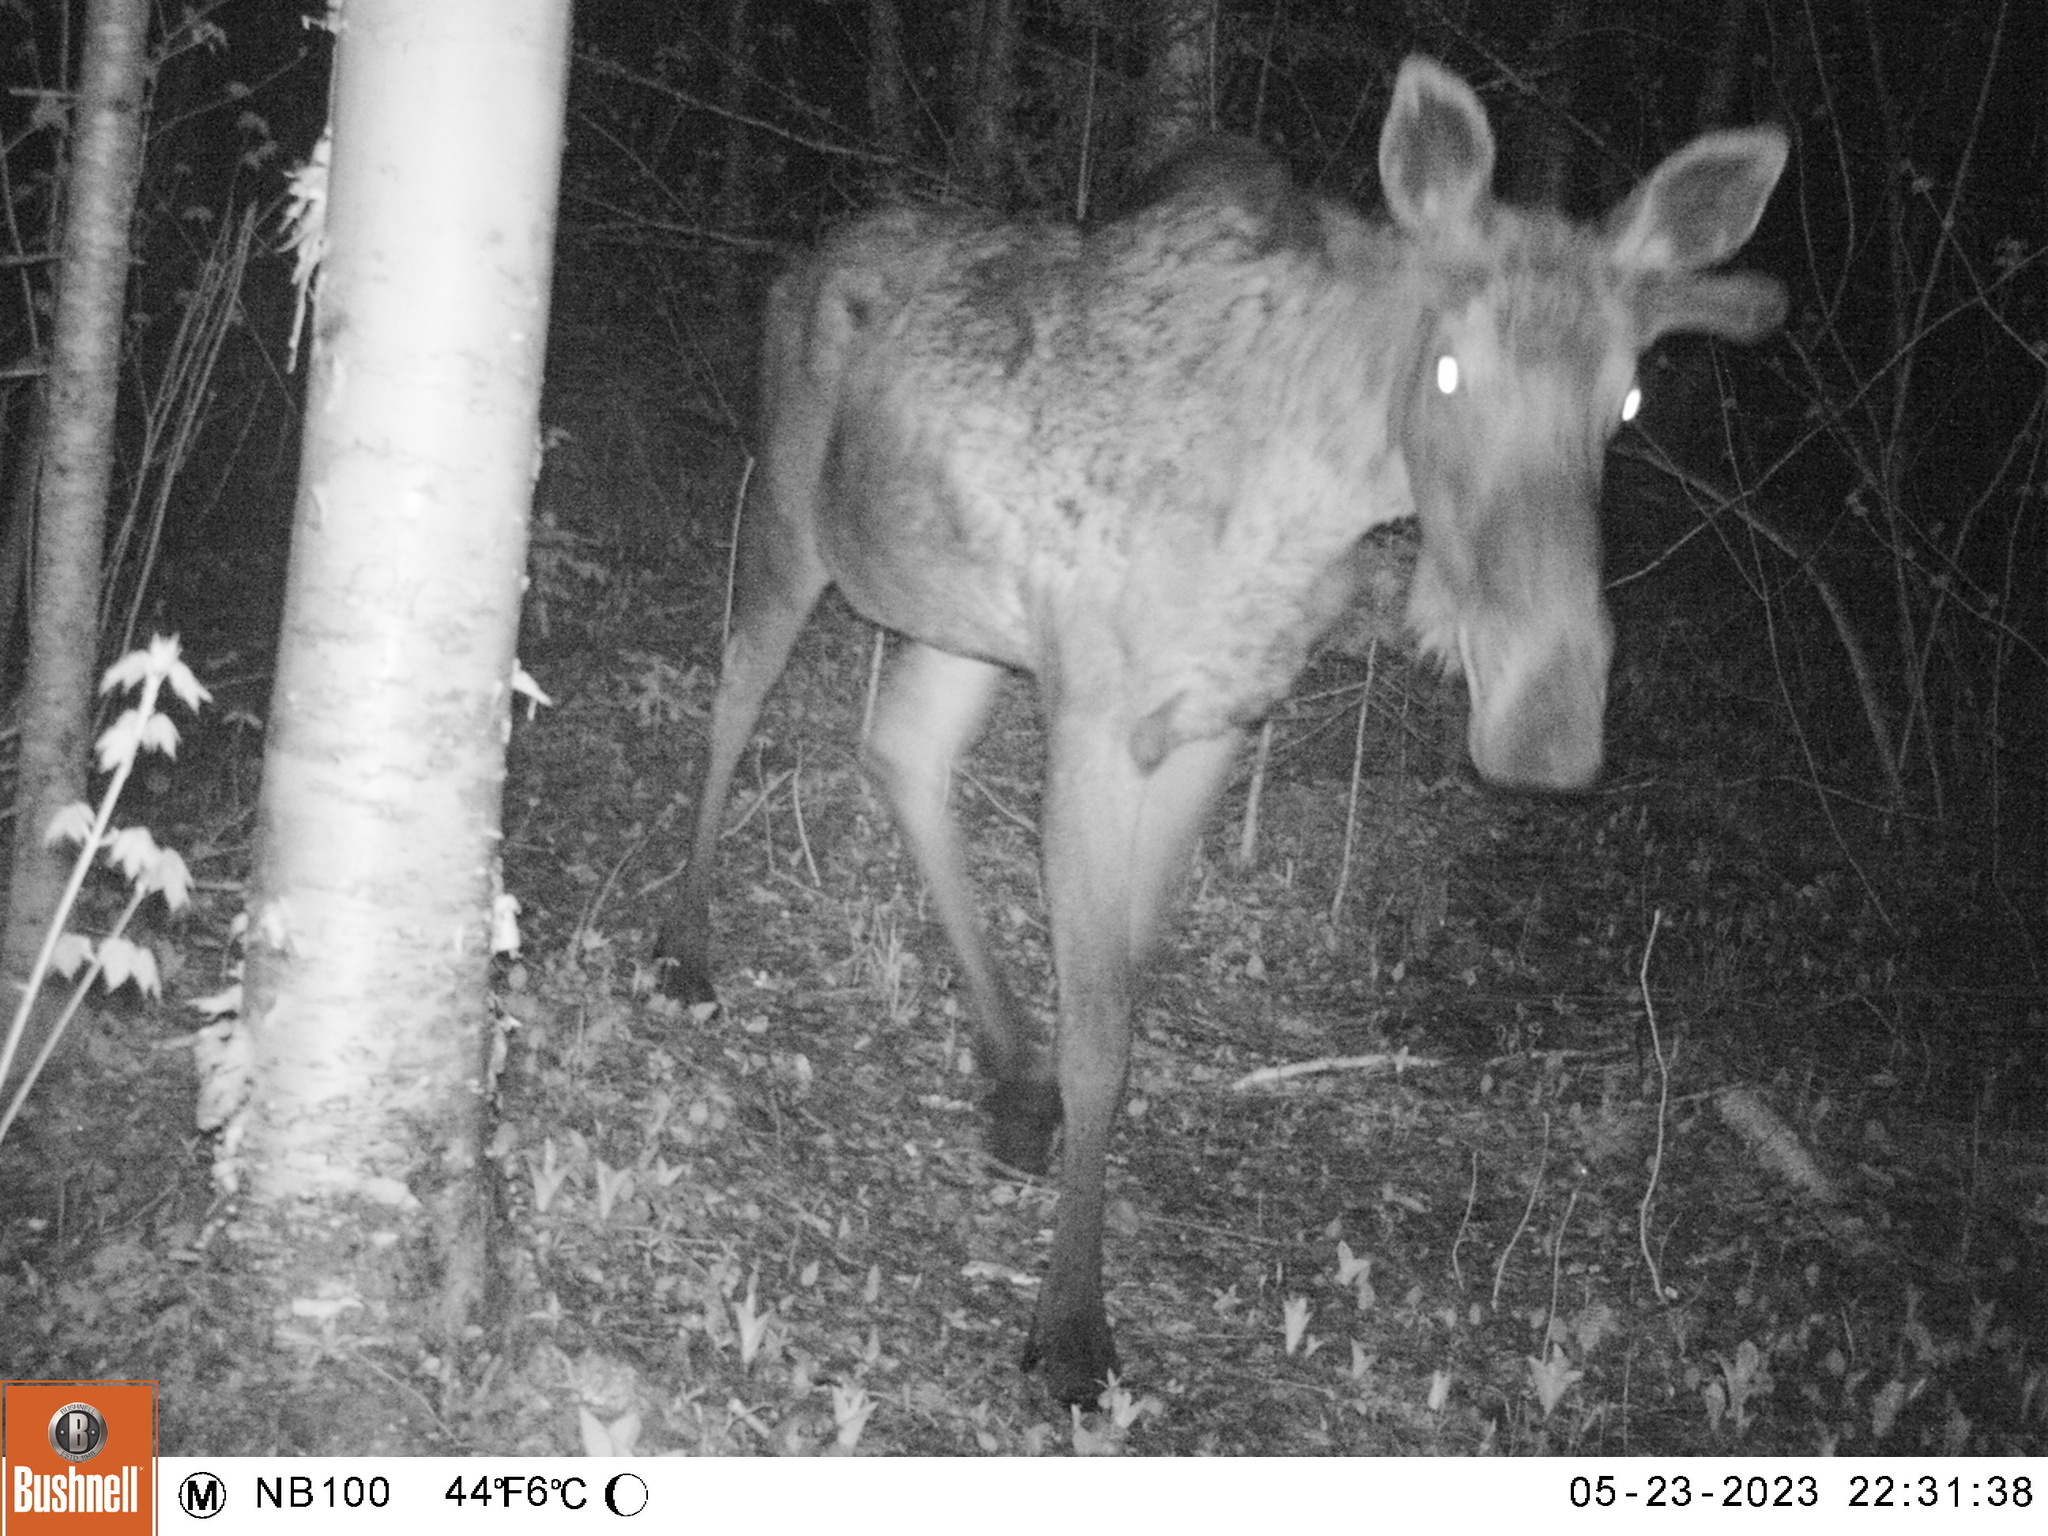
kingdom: Animalia
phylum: Chordata
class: Mammalia
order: Artiodactyla
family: Cervidae
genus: Alces
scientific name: Alces alces
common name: Moose
